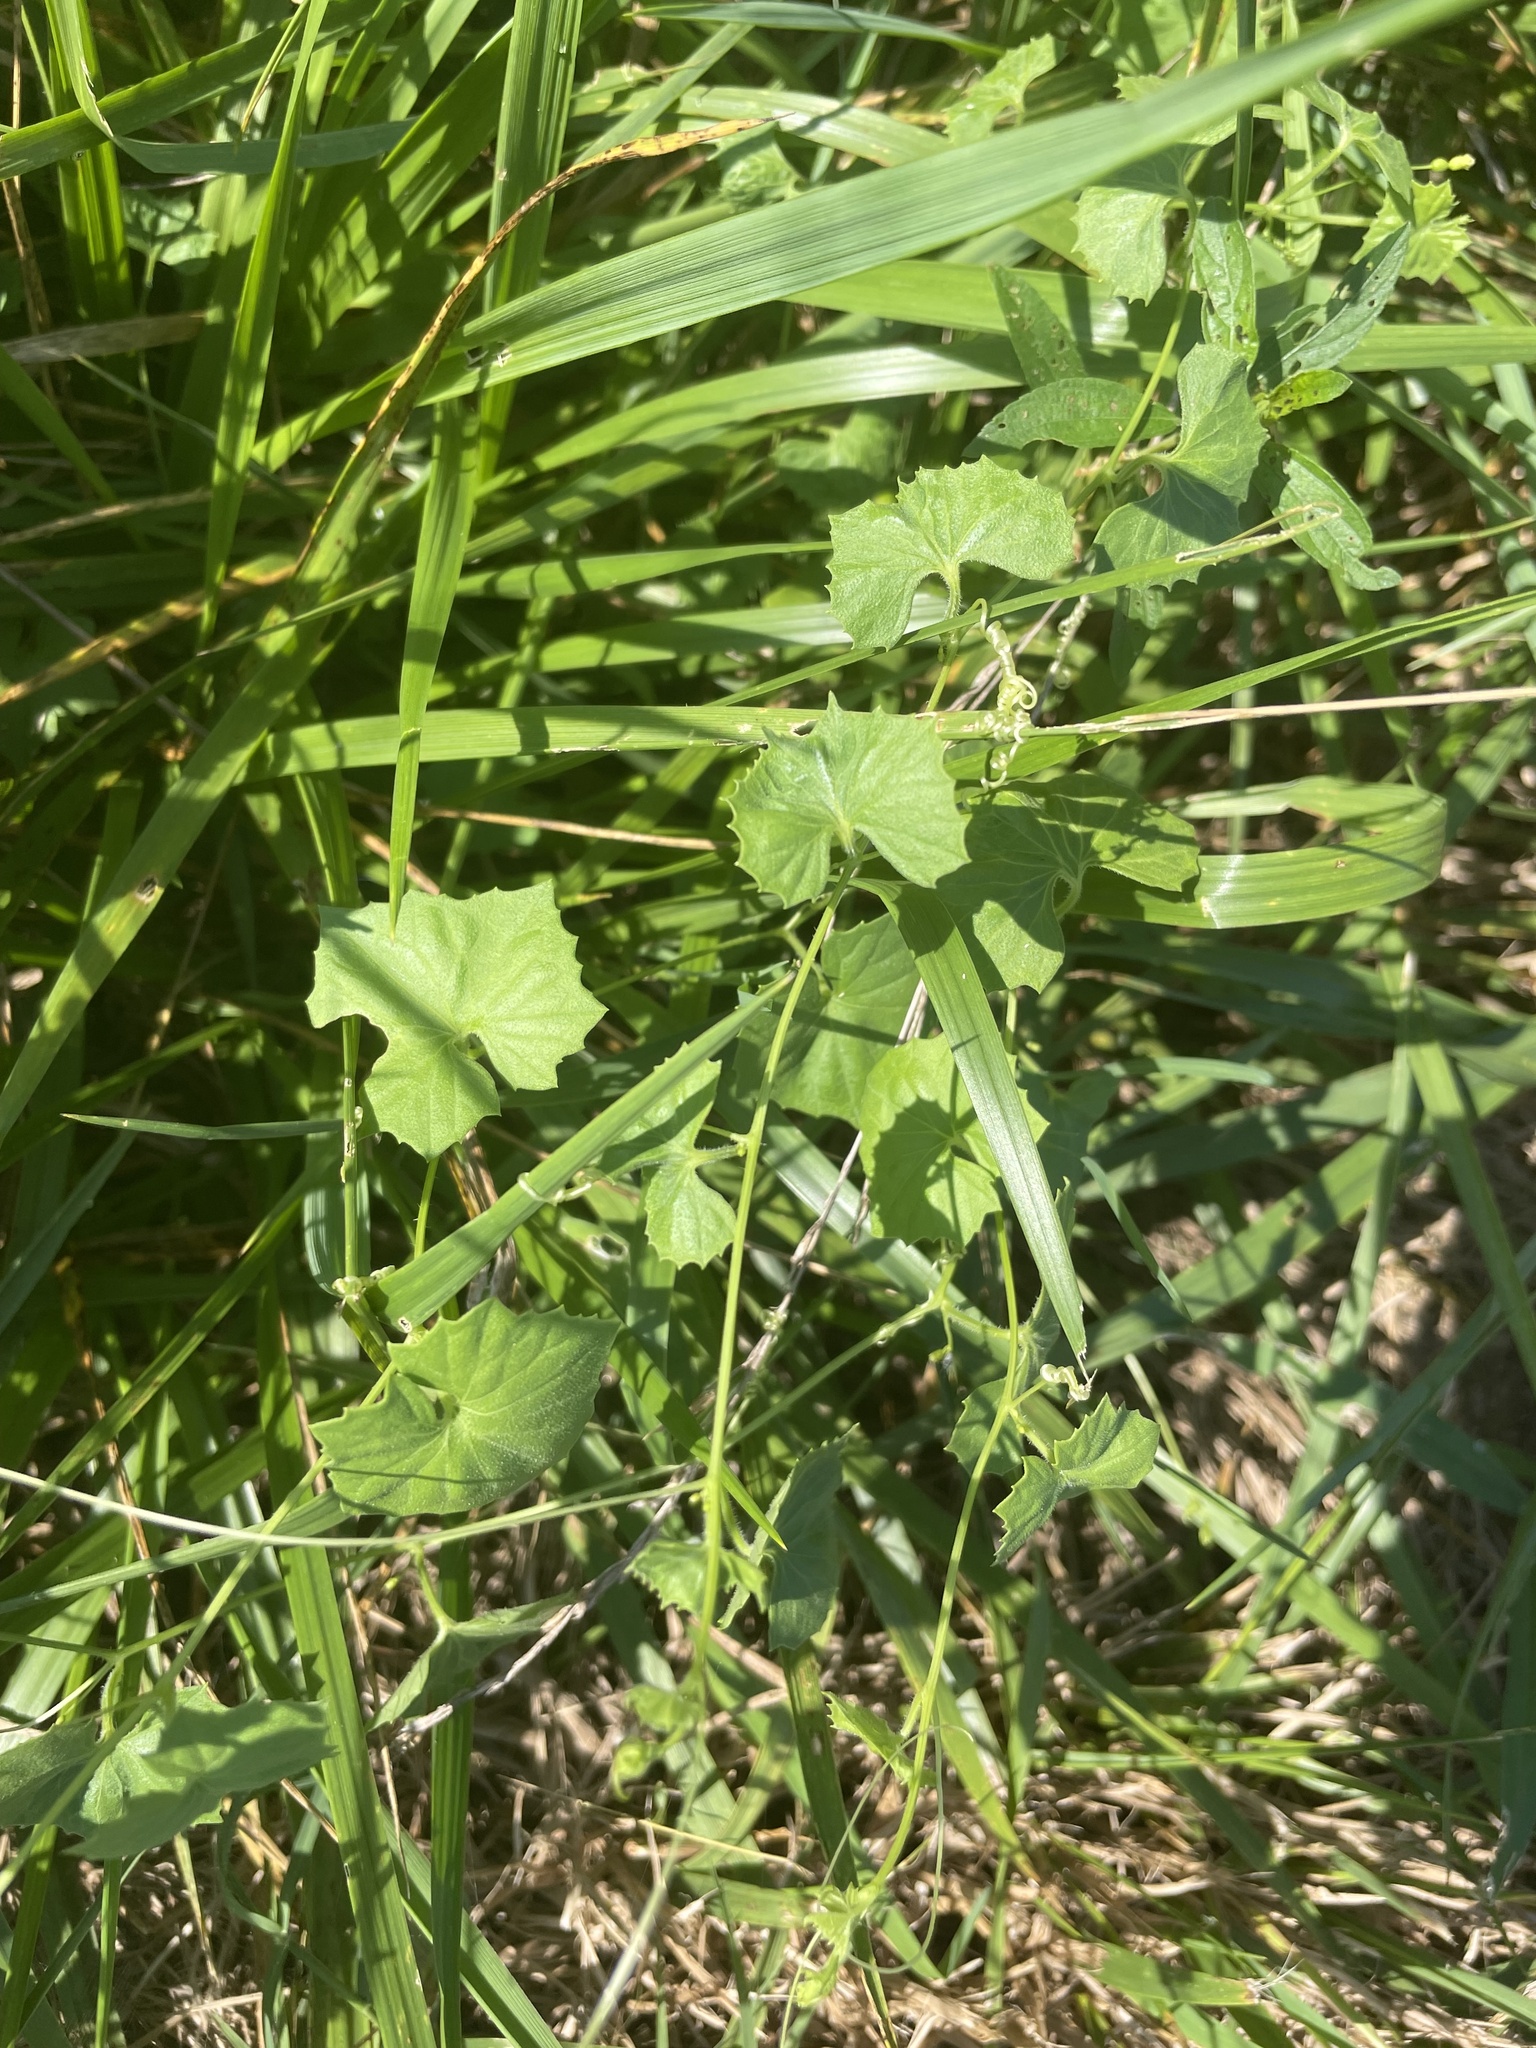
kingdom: Plantae
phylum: Tracheophyta
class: Magnoliopsida
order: Cucurbitales
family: Cucurbitaceae
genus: Melothria
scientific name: Melothria pendula
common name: Creeping-cucumber
